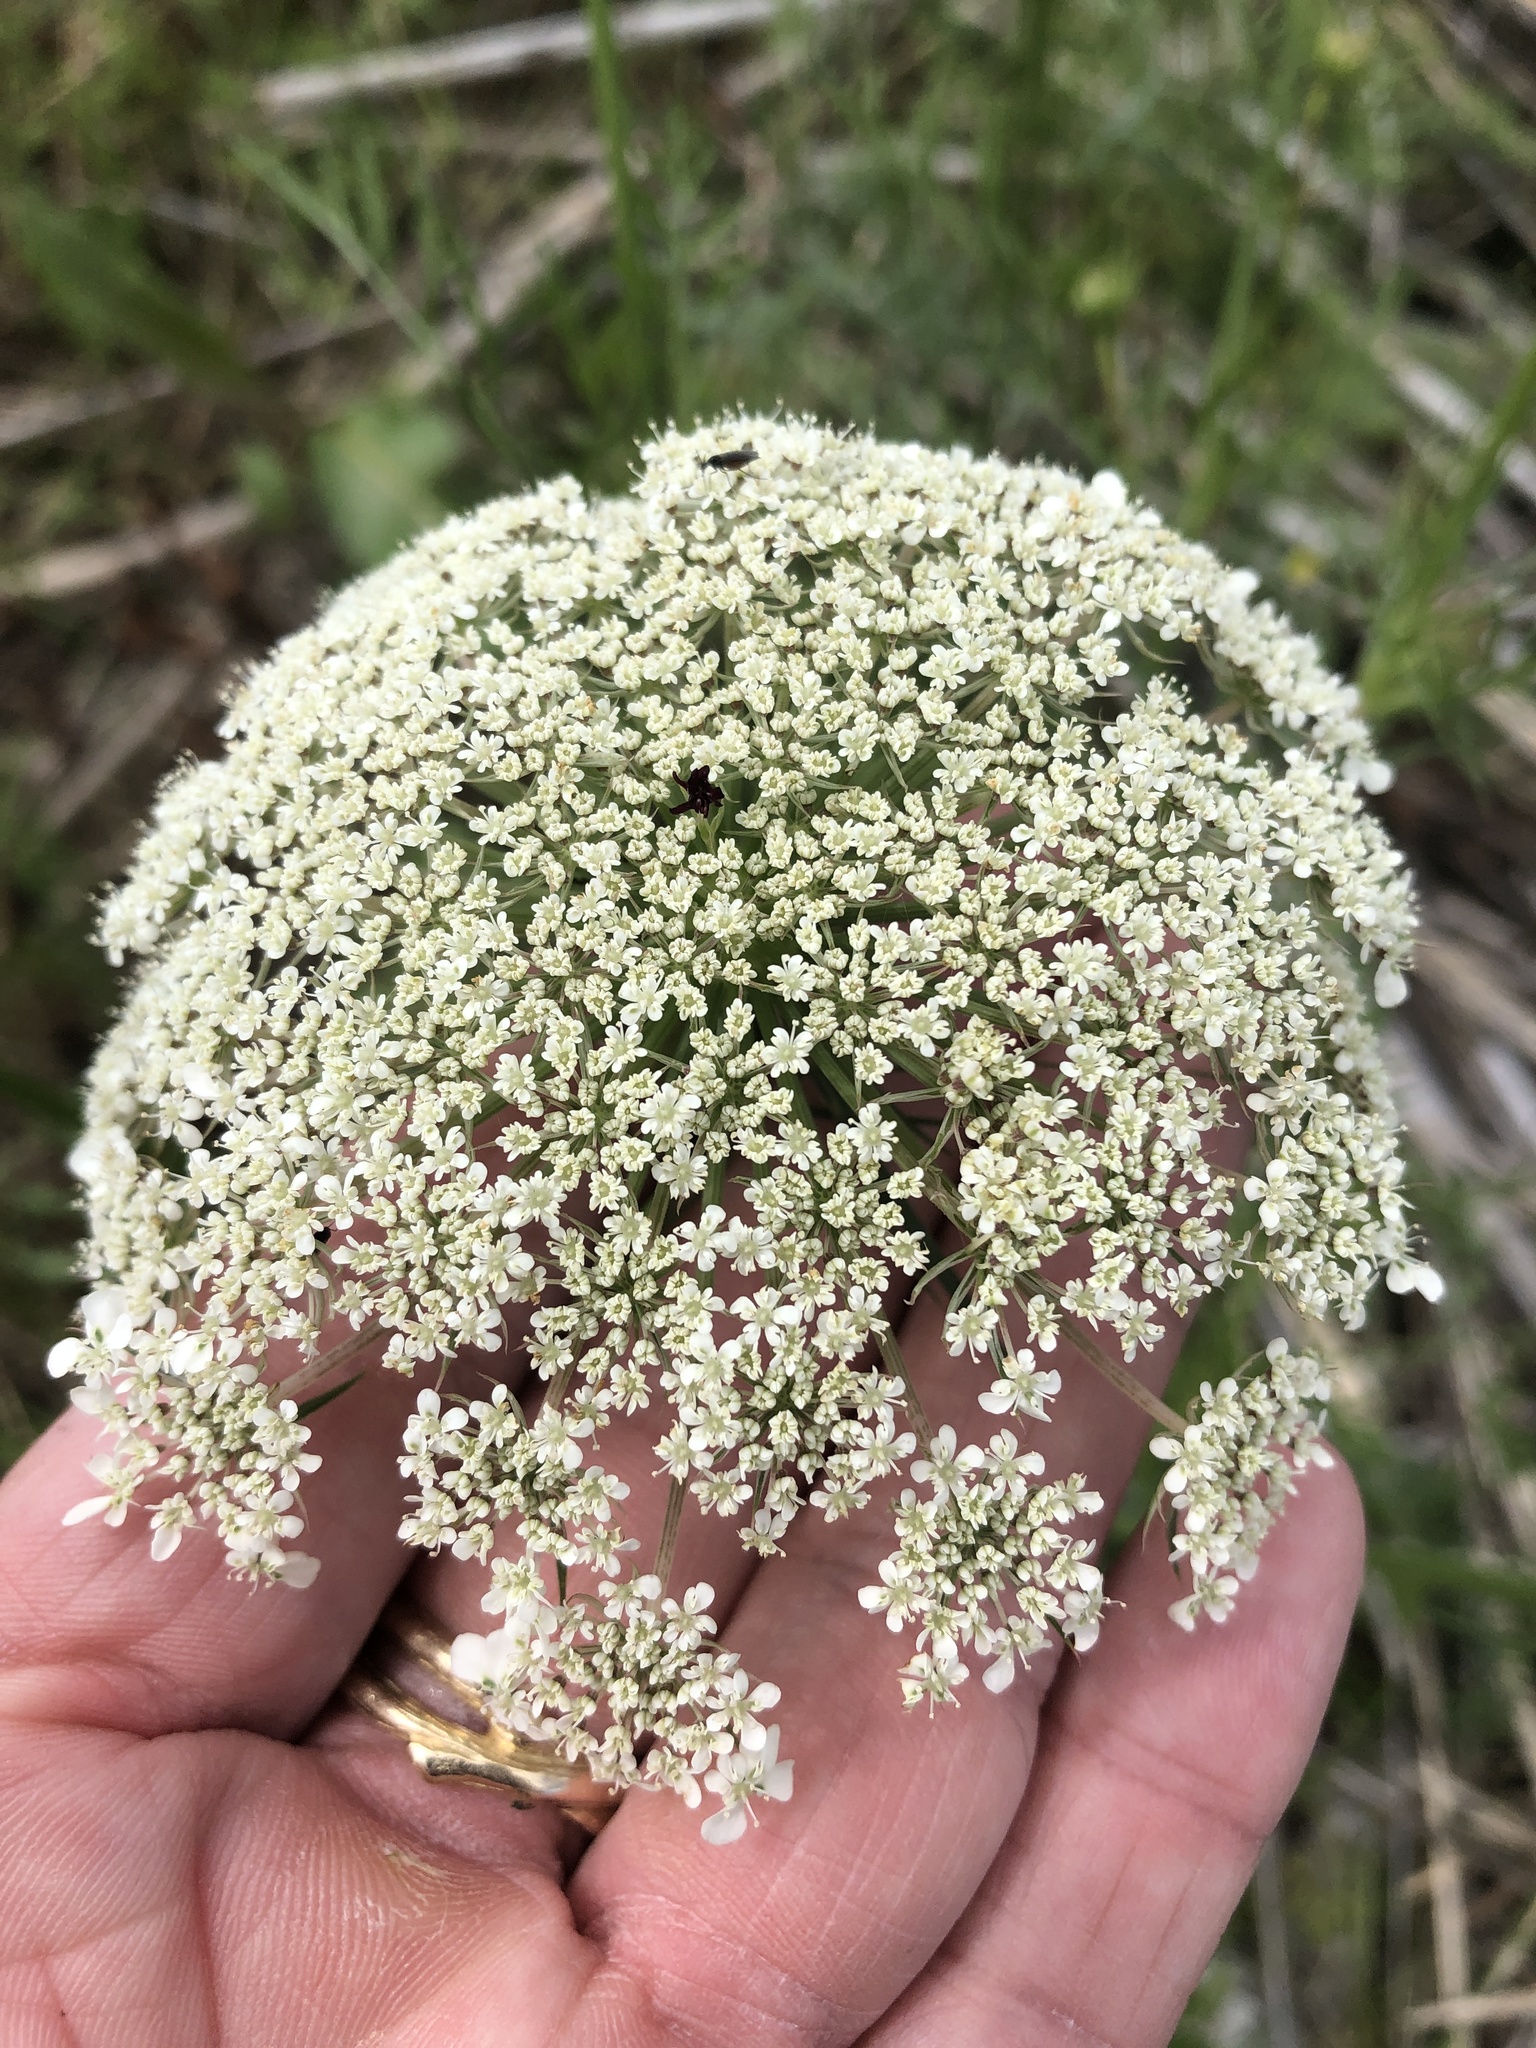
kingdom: Plantae
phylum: Tracheophyta
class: Magnoliopsida
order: Apiales
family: Apiaceae
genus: Daucus
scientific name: Daucus carota
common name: Wild carrot
